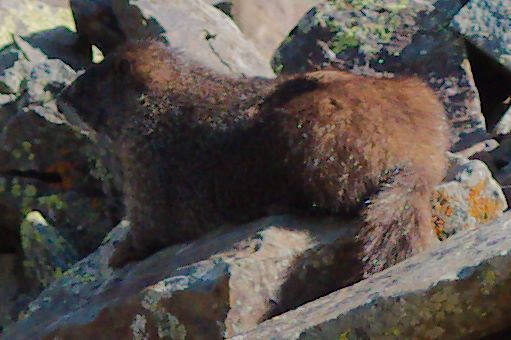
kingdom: Animalia
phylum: Chordata
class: Mammalia
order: Rodentia
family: Sciuridae
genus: Marmota
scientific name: Marmota flaviventris
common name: Yellow-bellied marmot
